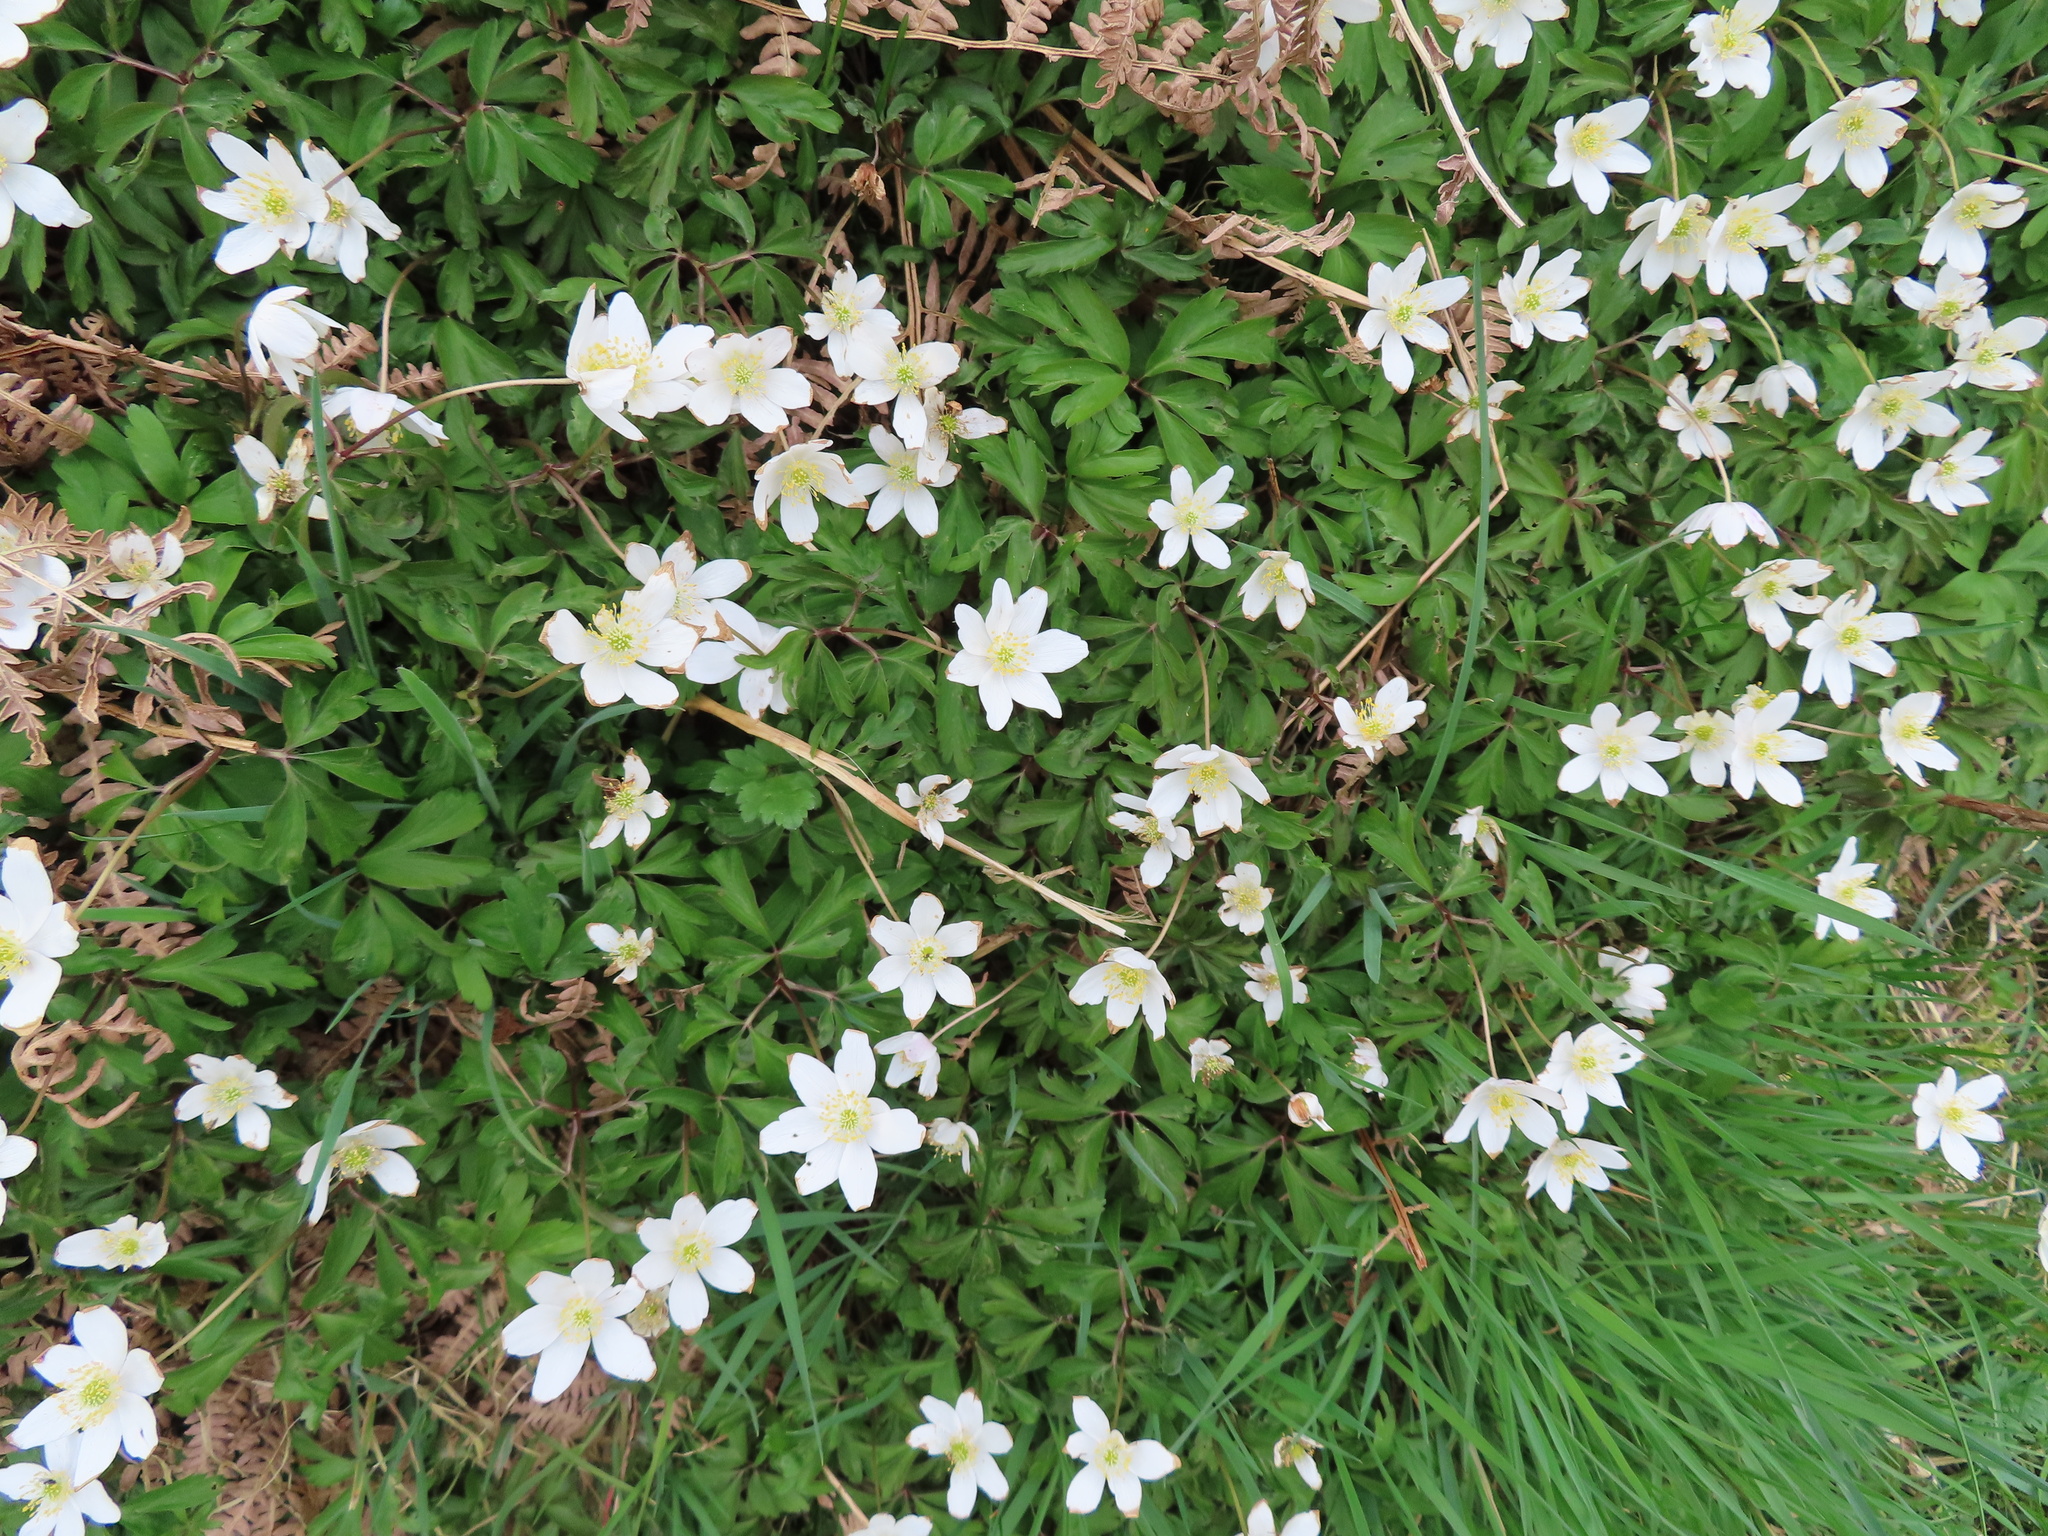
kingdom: Plantae
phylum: Tracheophyta
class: Magnoliopsida
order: Ranunculales
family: Ranunculaceae
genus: Anemone
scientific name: Anemone nemorosa
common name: Wood anemone
